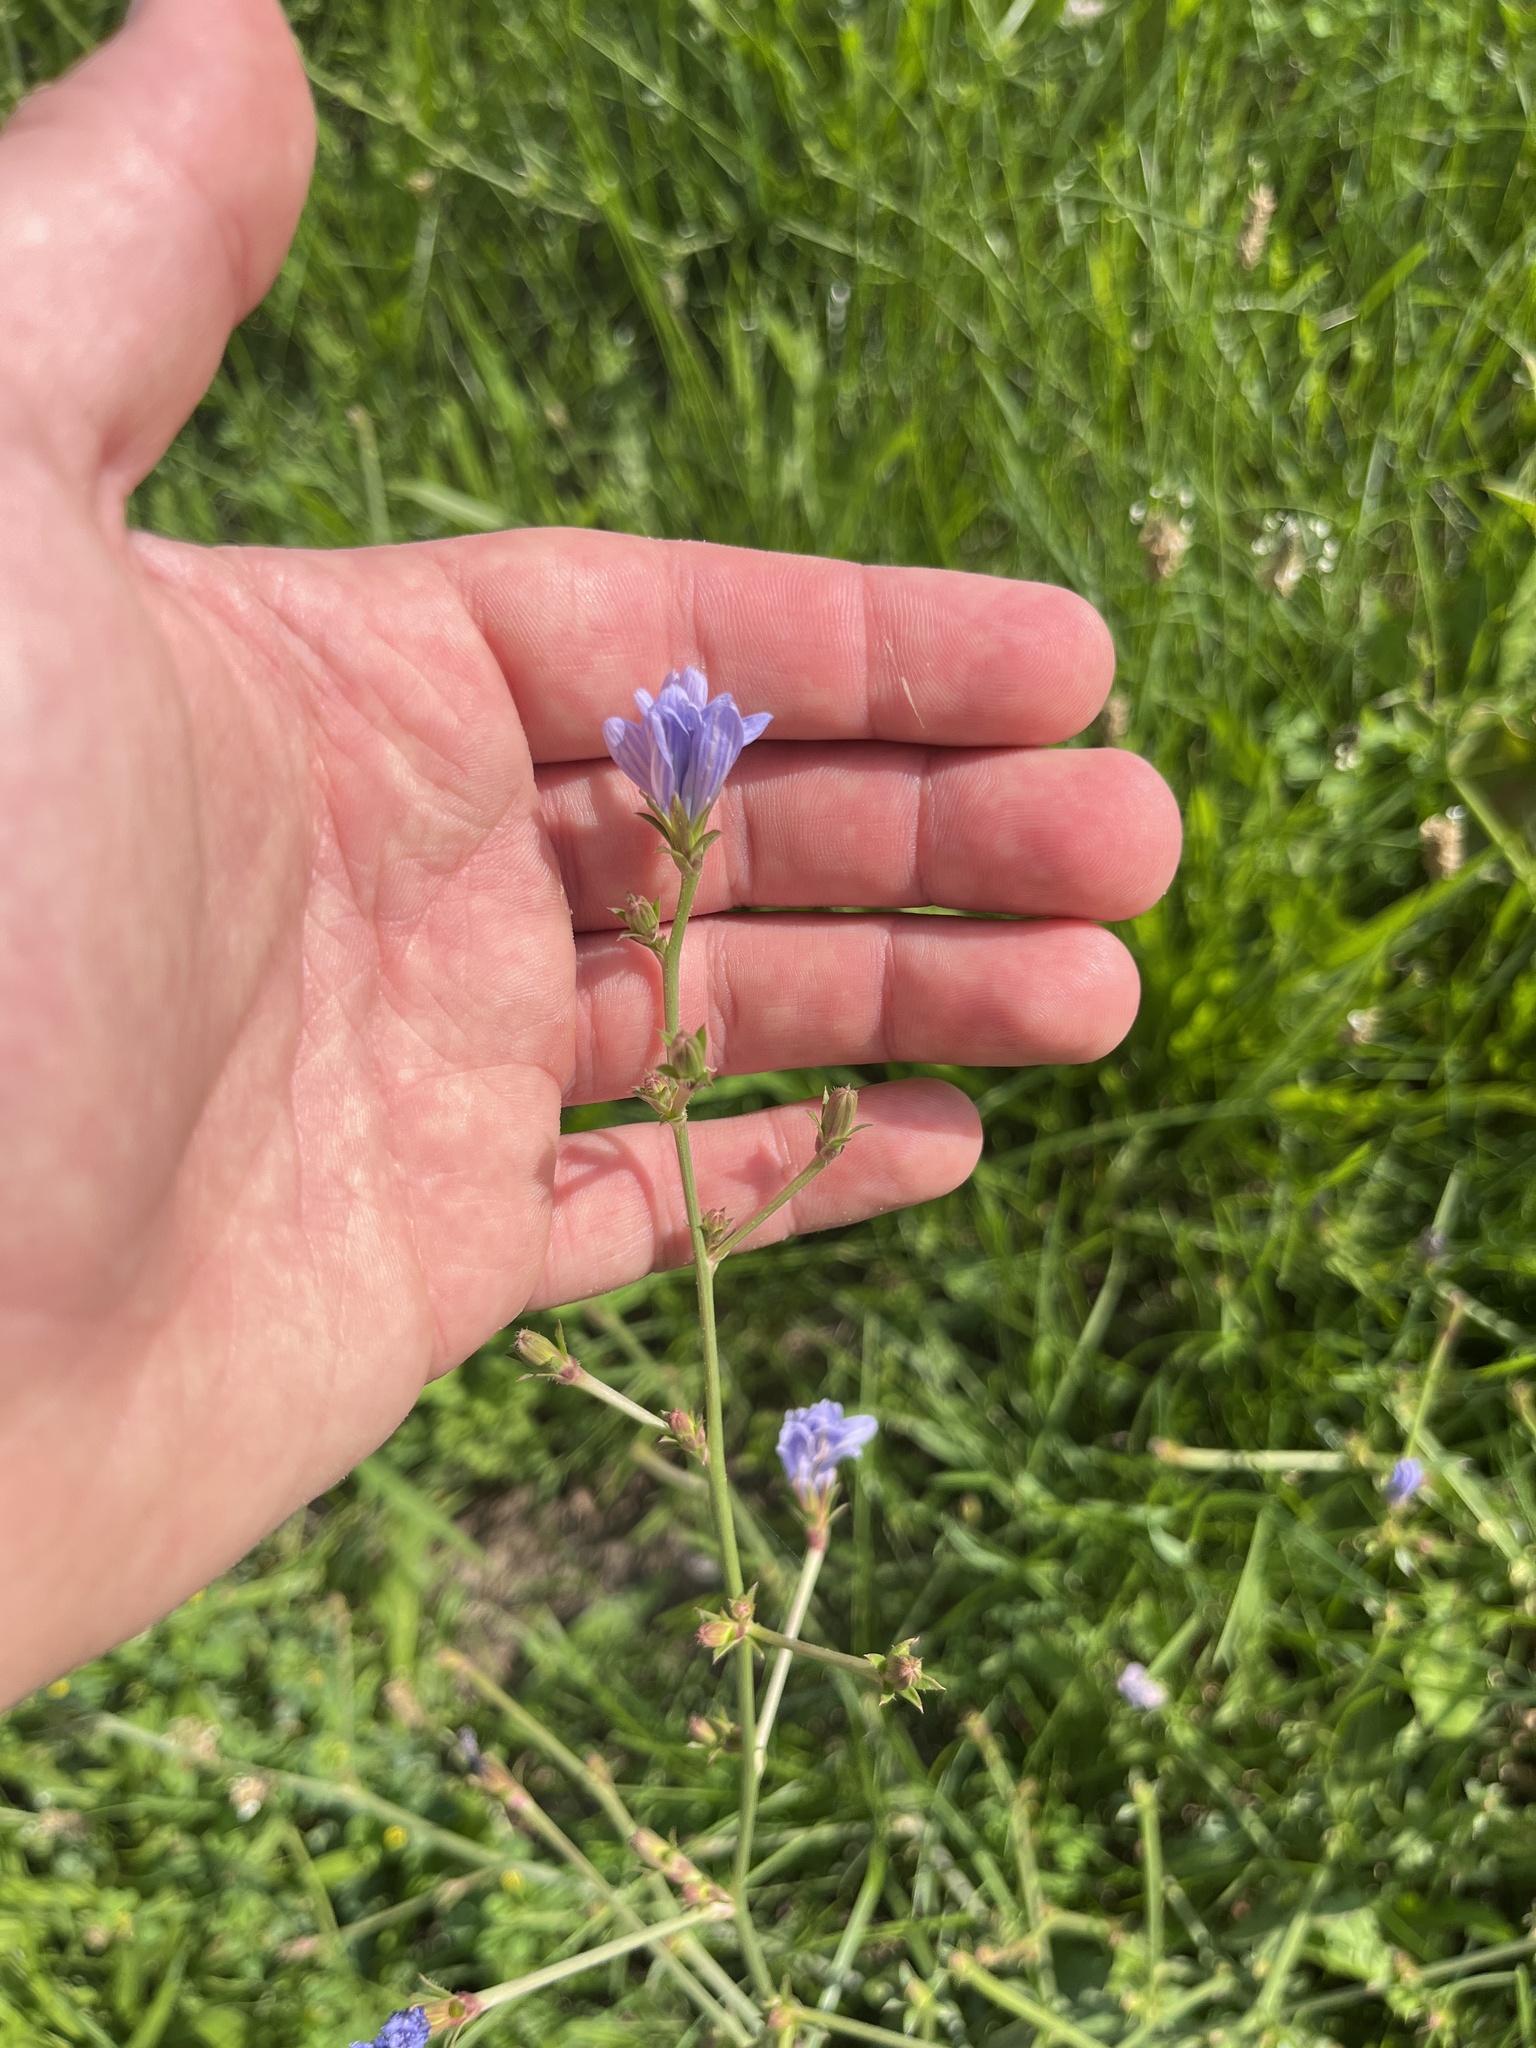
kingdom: Plantae
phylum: Tracheophyta
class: Magnoliopsida
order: Asterales
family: Asteraceae
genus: Cichorium
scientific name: Cichorium intybus
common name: Chicory
